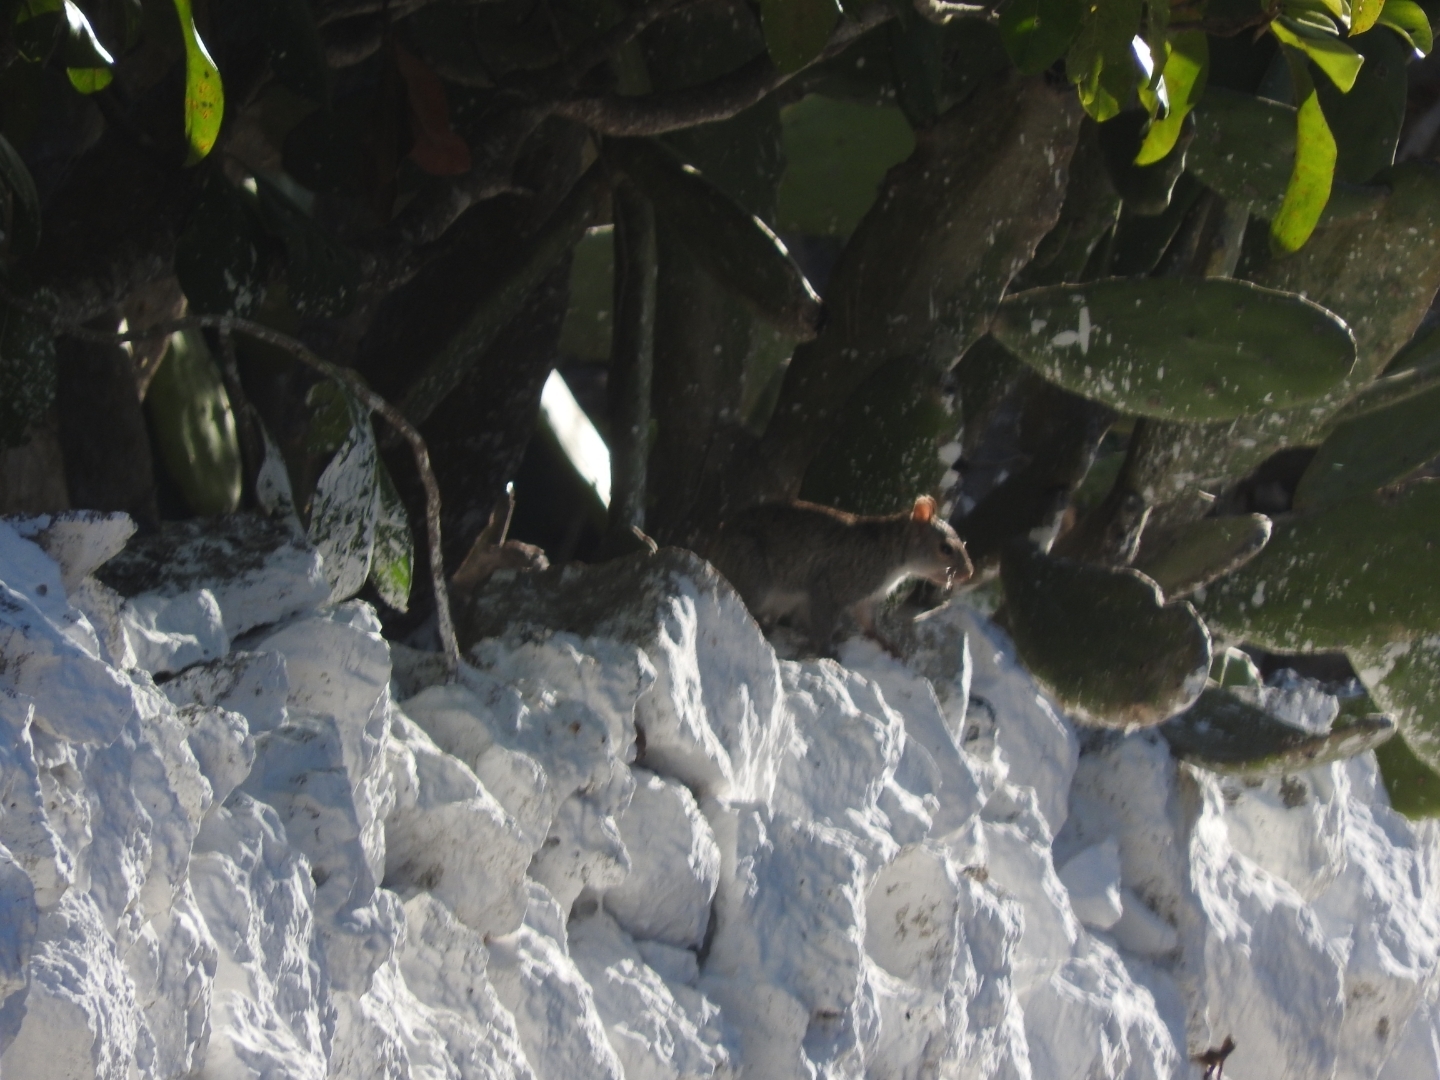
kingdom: Animalia
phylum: Chordata
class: Mammalia
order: Rodentia
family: Sciuridae
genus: Sciurus
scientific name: Sciurus yucatanensis
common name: Yucatan squirrel
